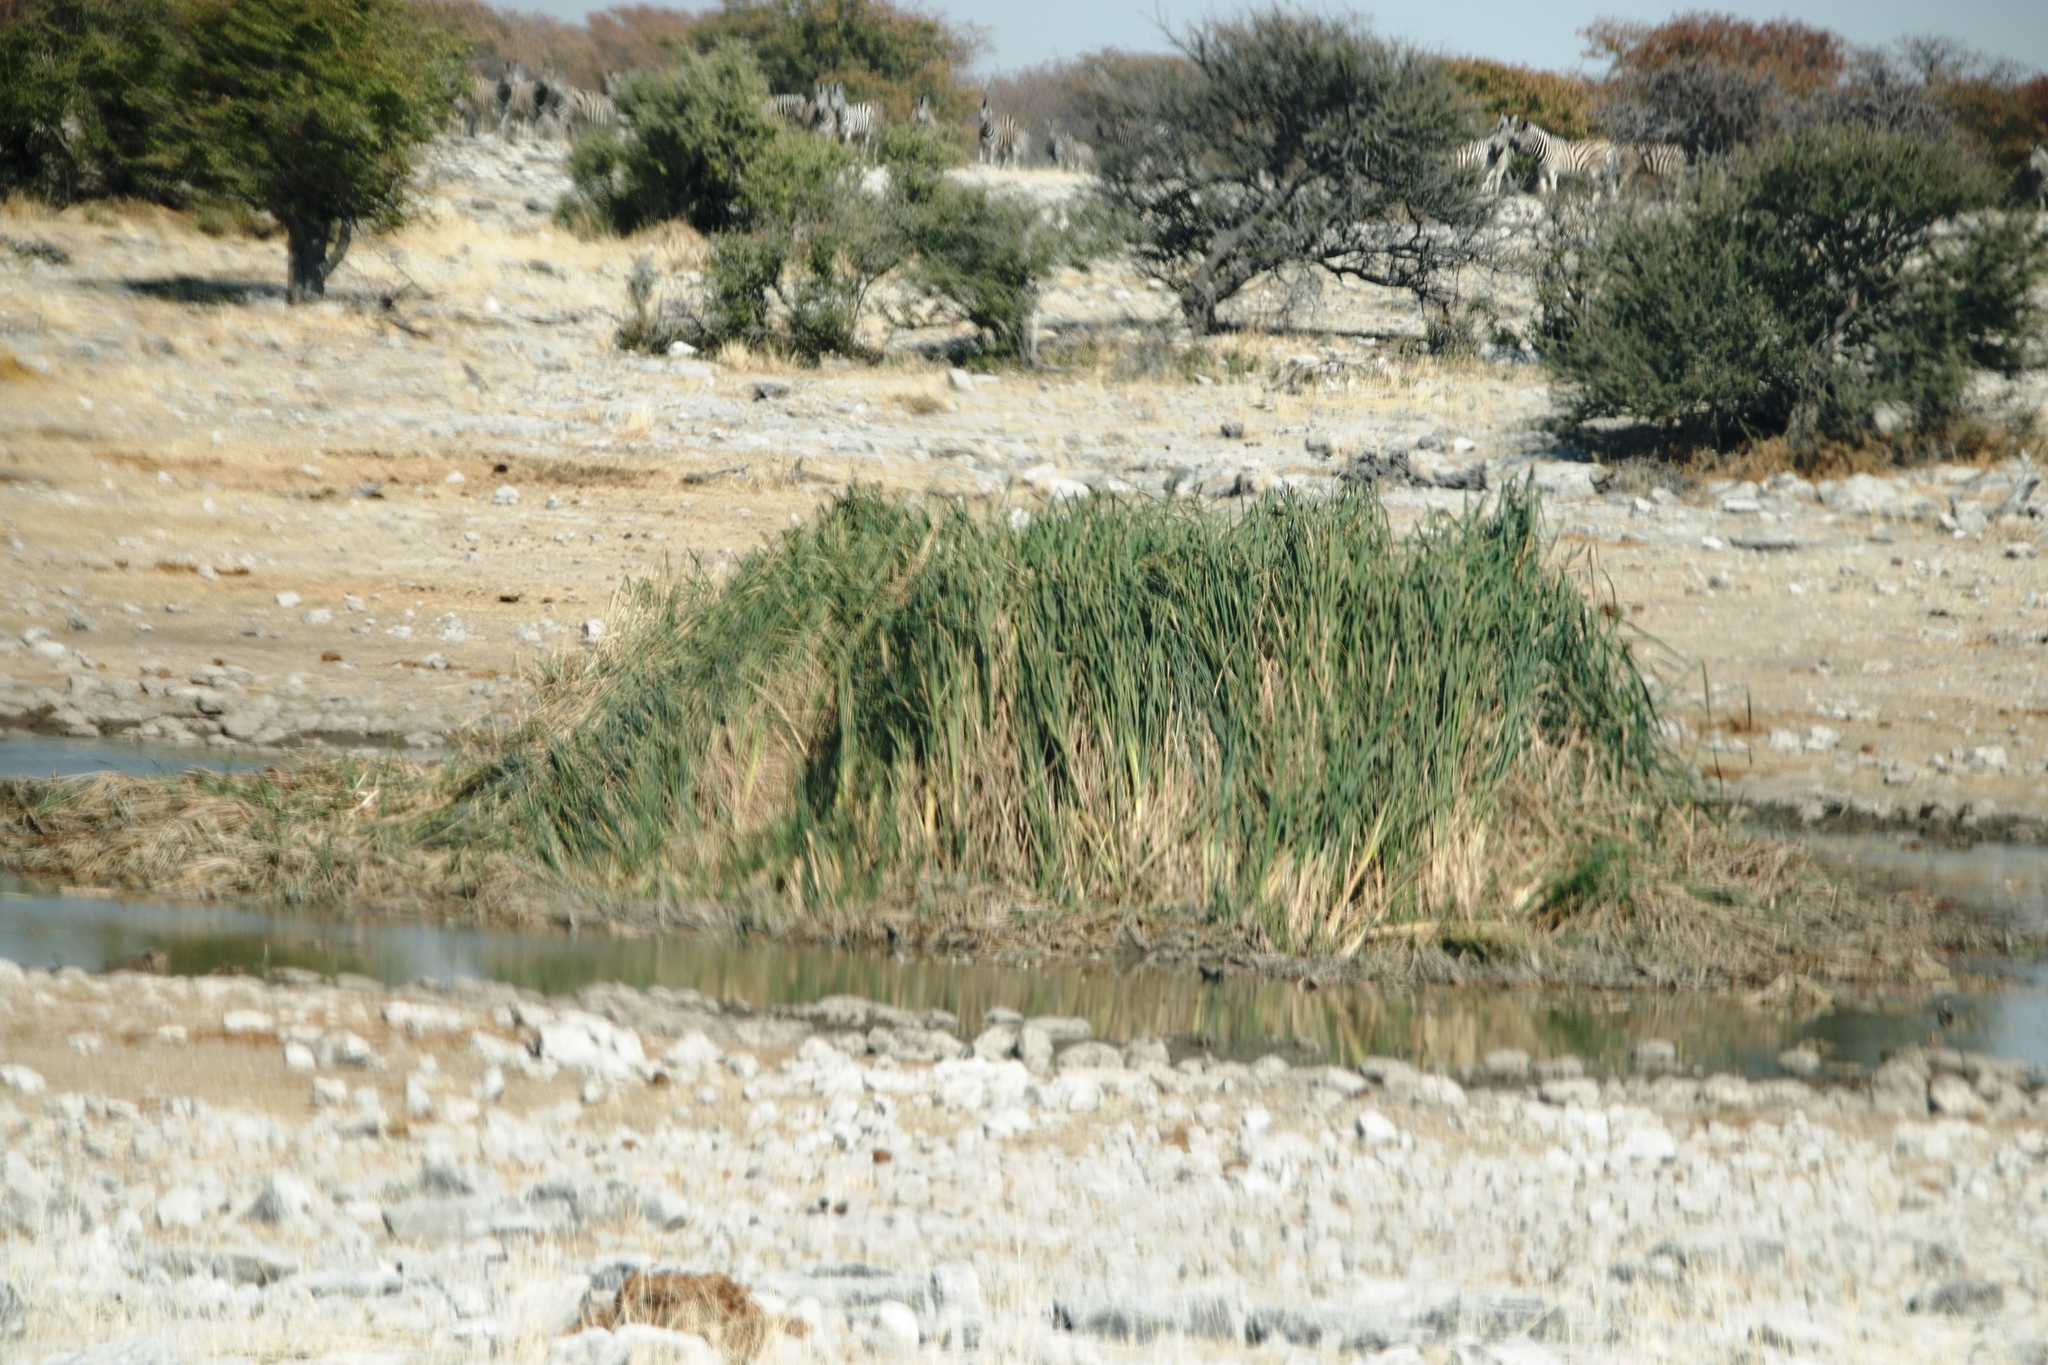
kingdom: Plantae
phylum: Tracheophyta
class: Liliopsida
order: Poales
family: Poaceae
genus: Phragmites
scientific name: Phragmites australis
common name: Common reed
